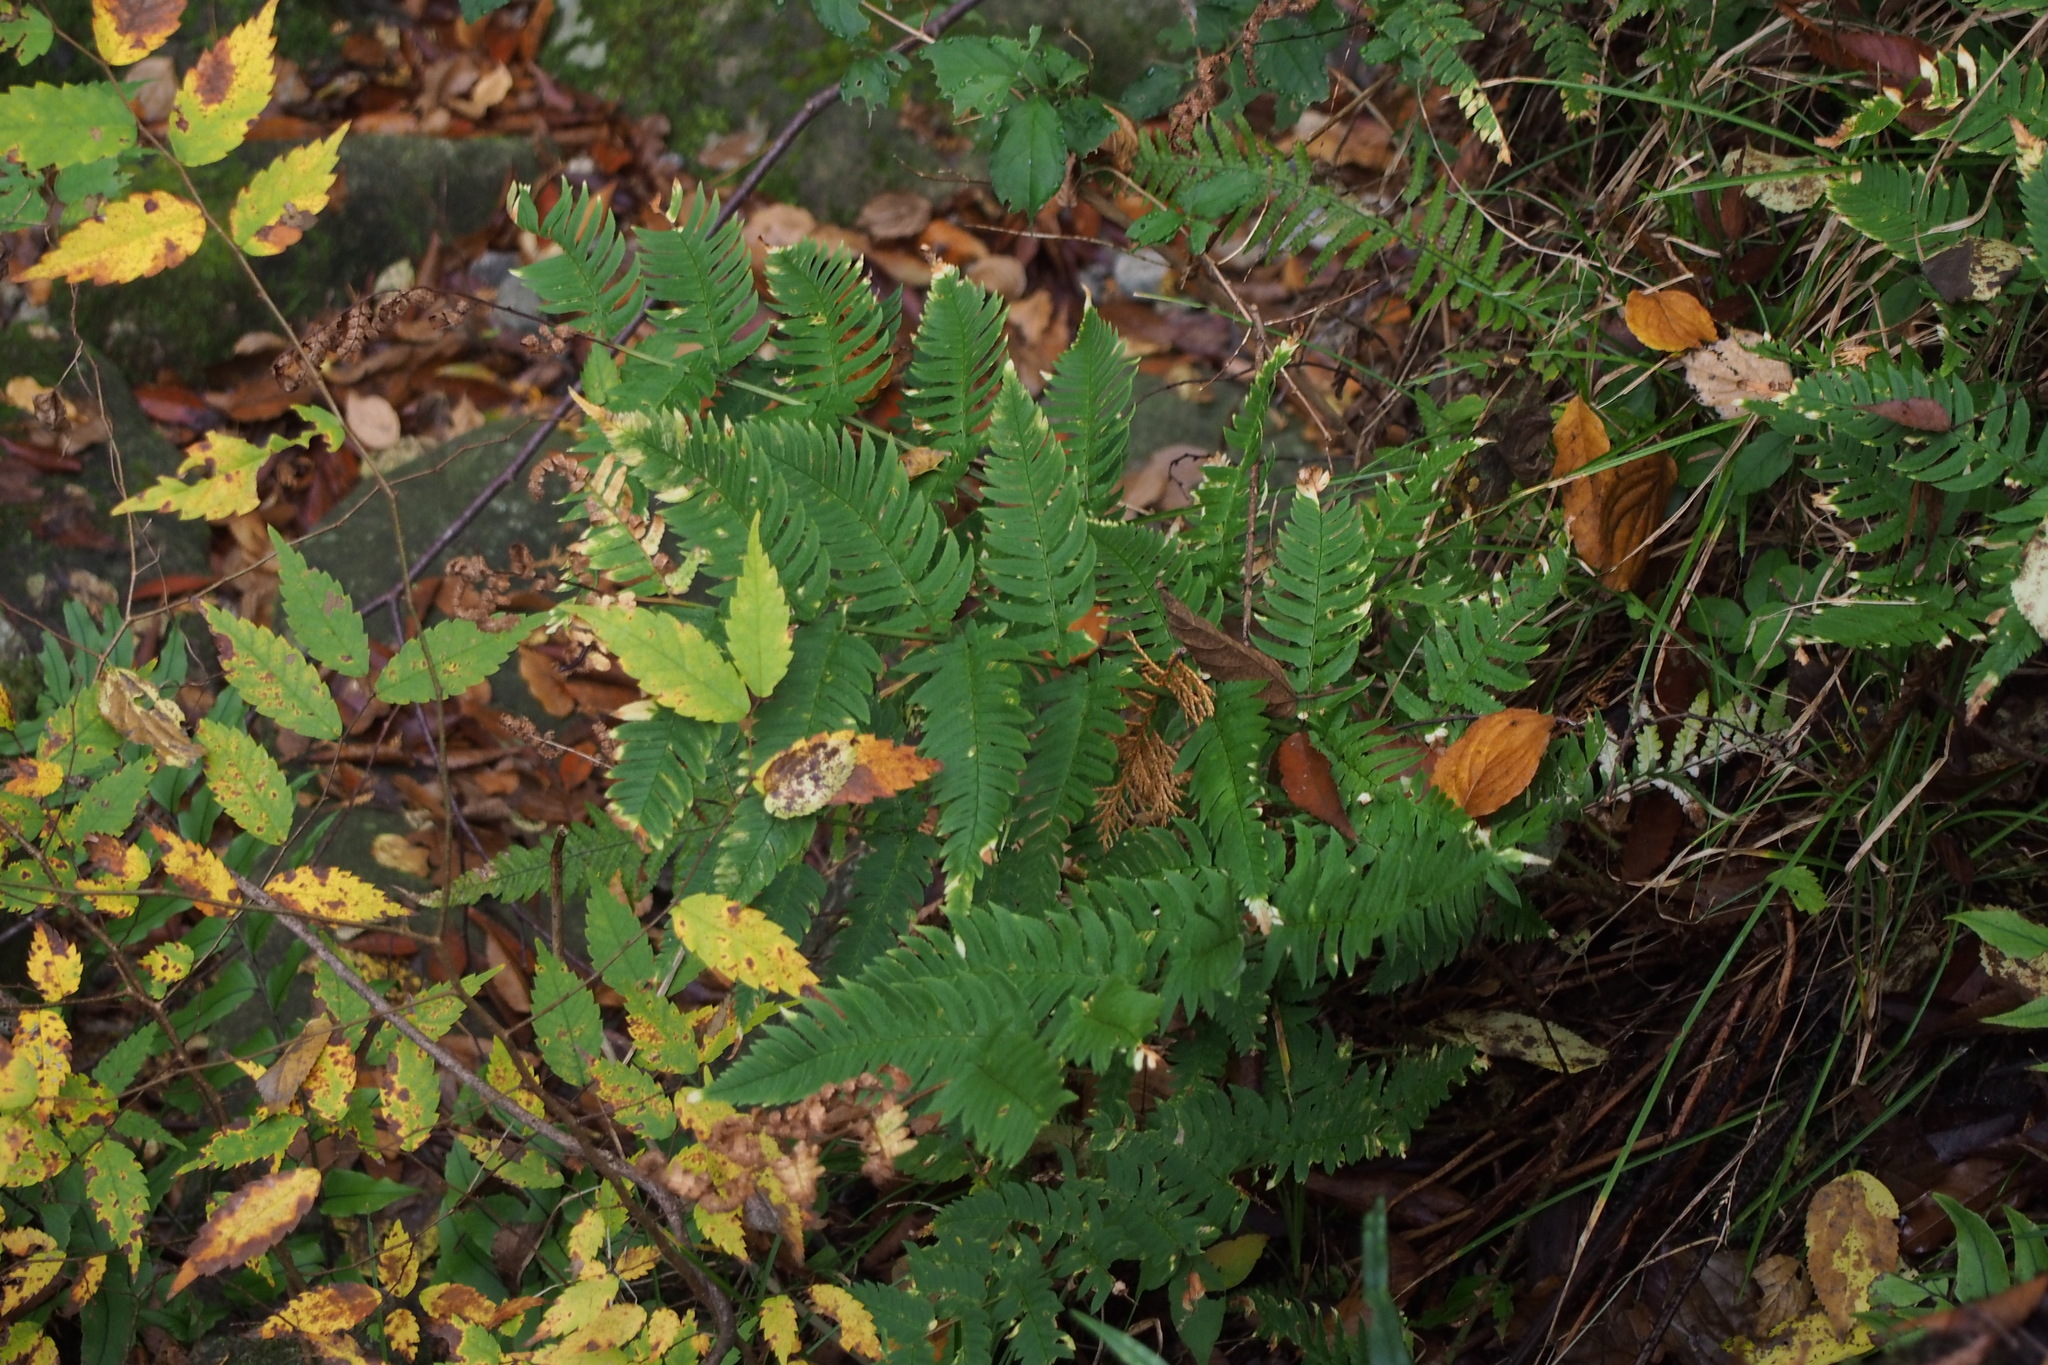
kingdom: Plantae
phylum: Tracheophyta
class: Polypodiopsida
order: Polypodiales
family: Dryopteridaceae
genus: Dryopteris
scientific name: Dryopteris lacera
